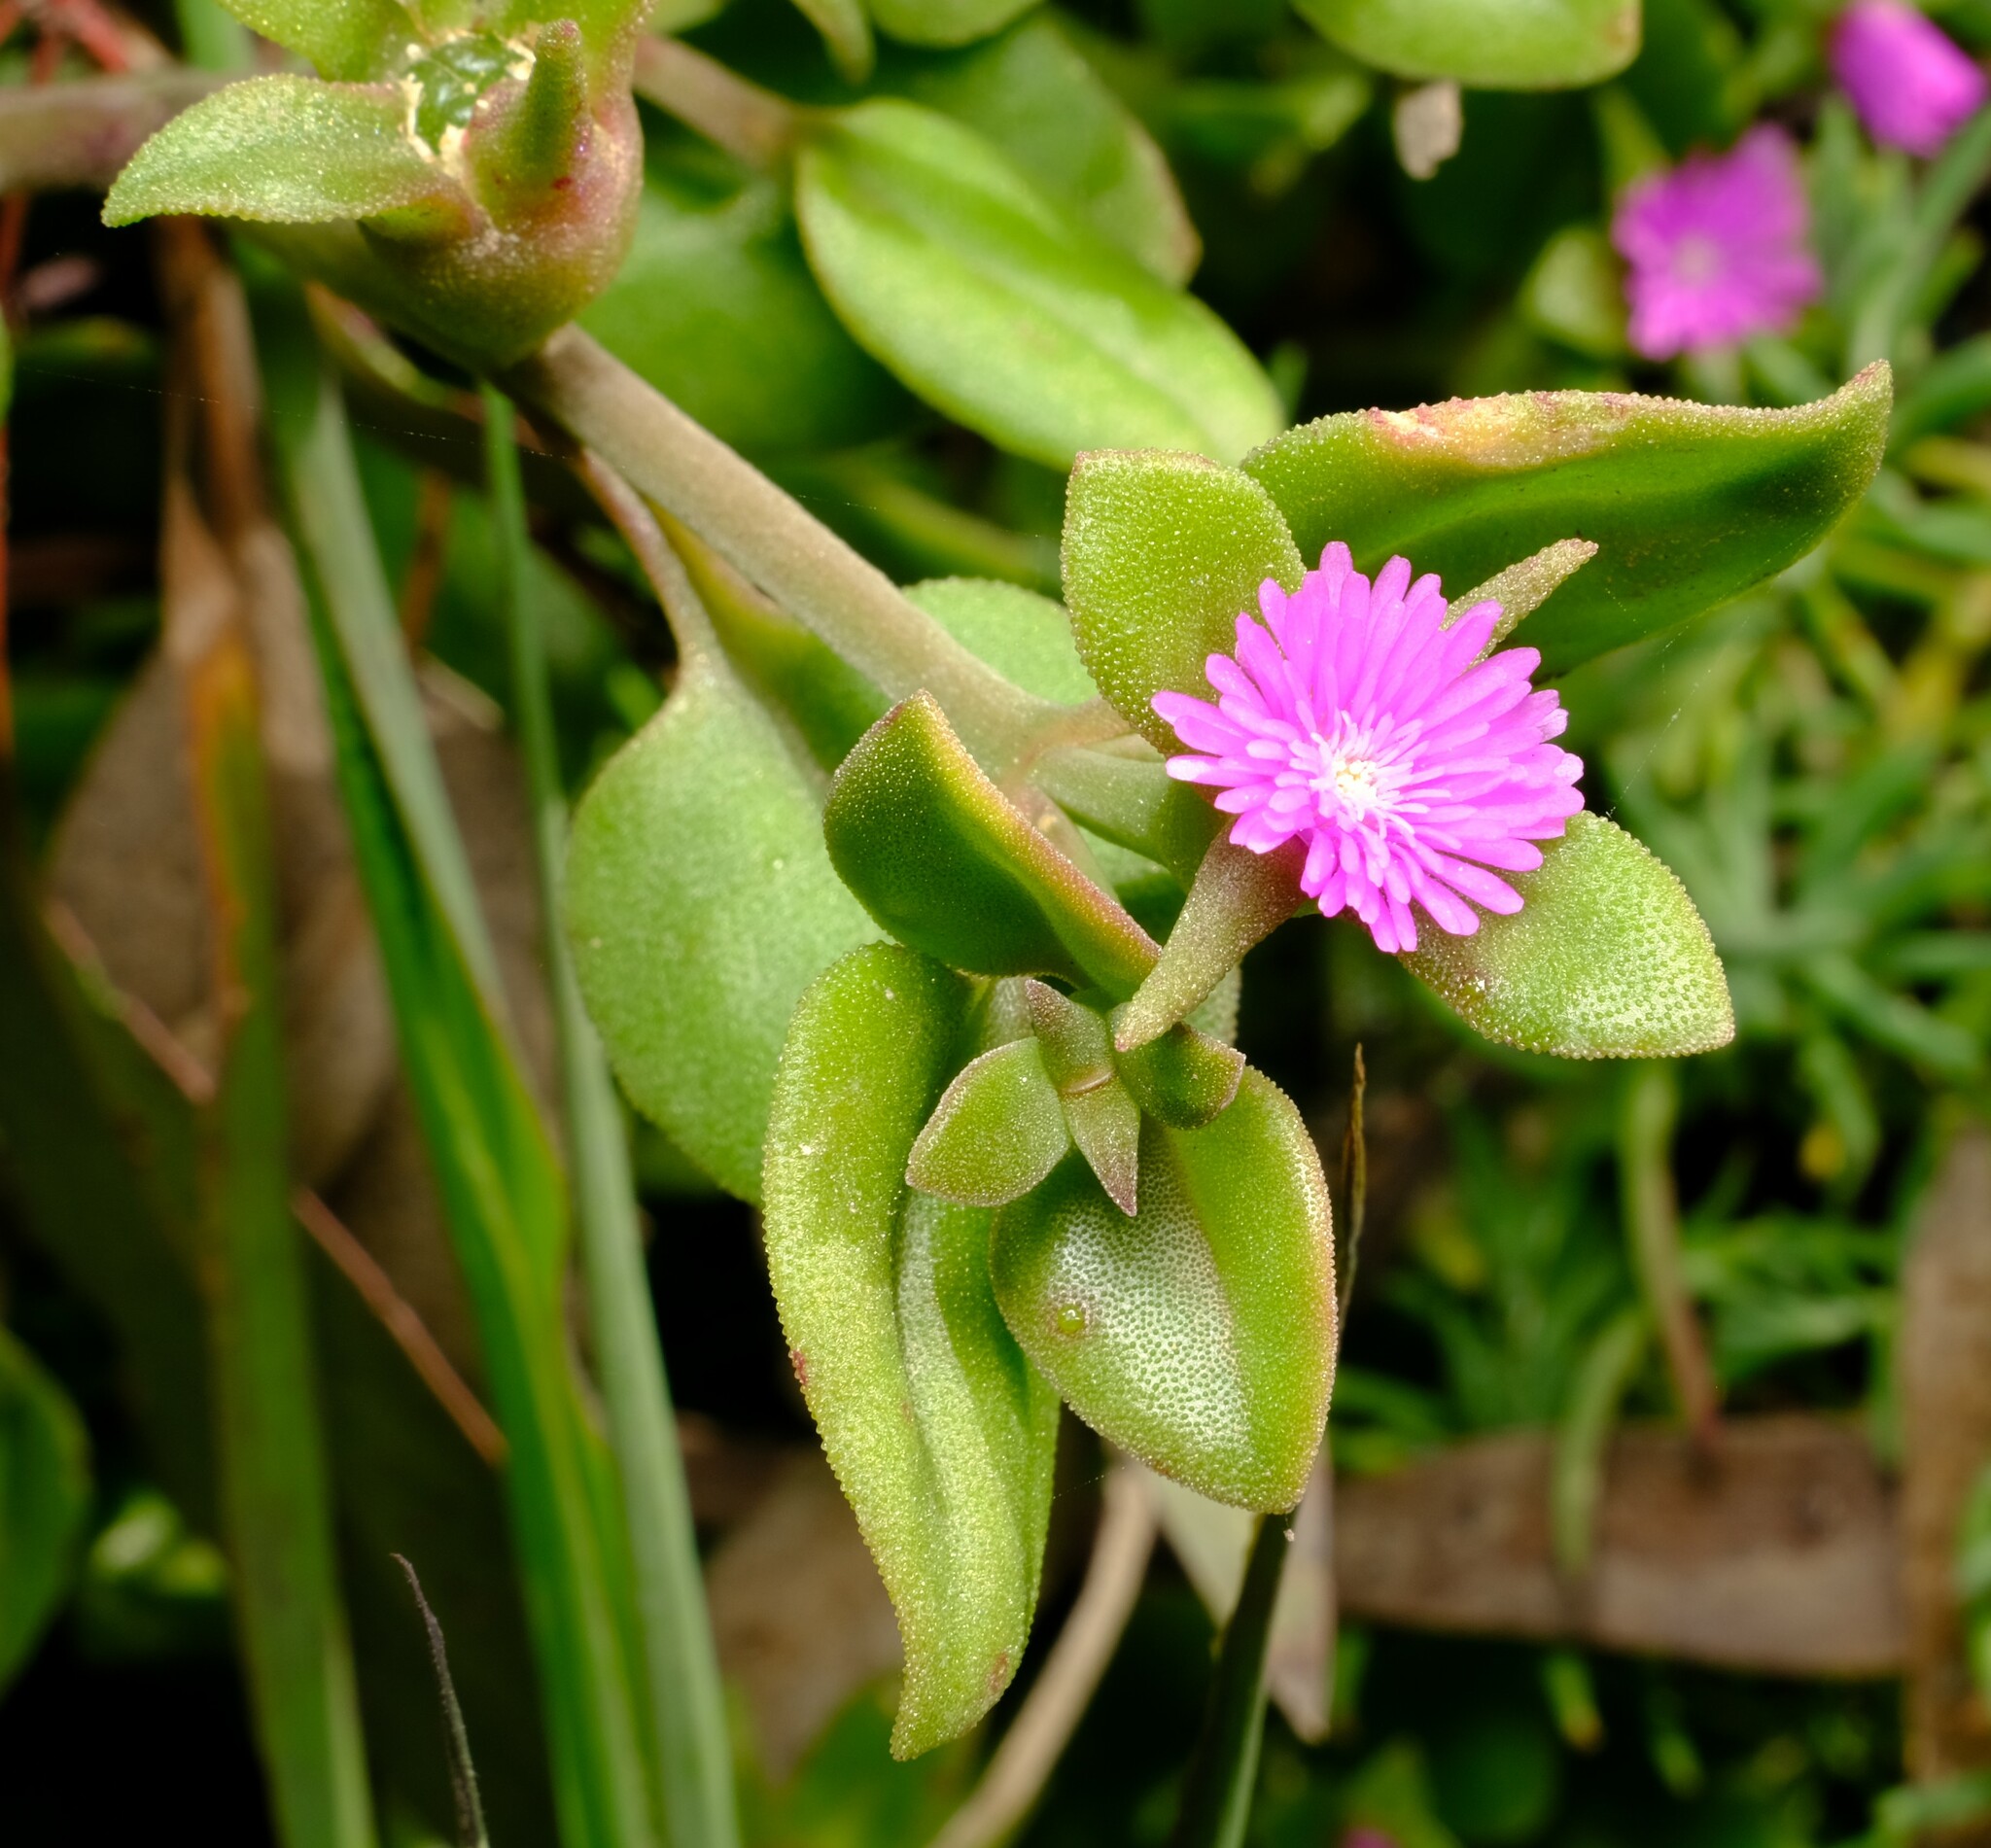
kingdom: Plantae
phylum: Tracheophyta
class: Magnoliopsida
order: Caryophyllales
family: Aizoaceae
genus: Mesembryanthemum
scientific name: Mesembryanthemum cordifolium
